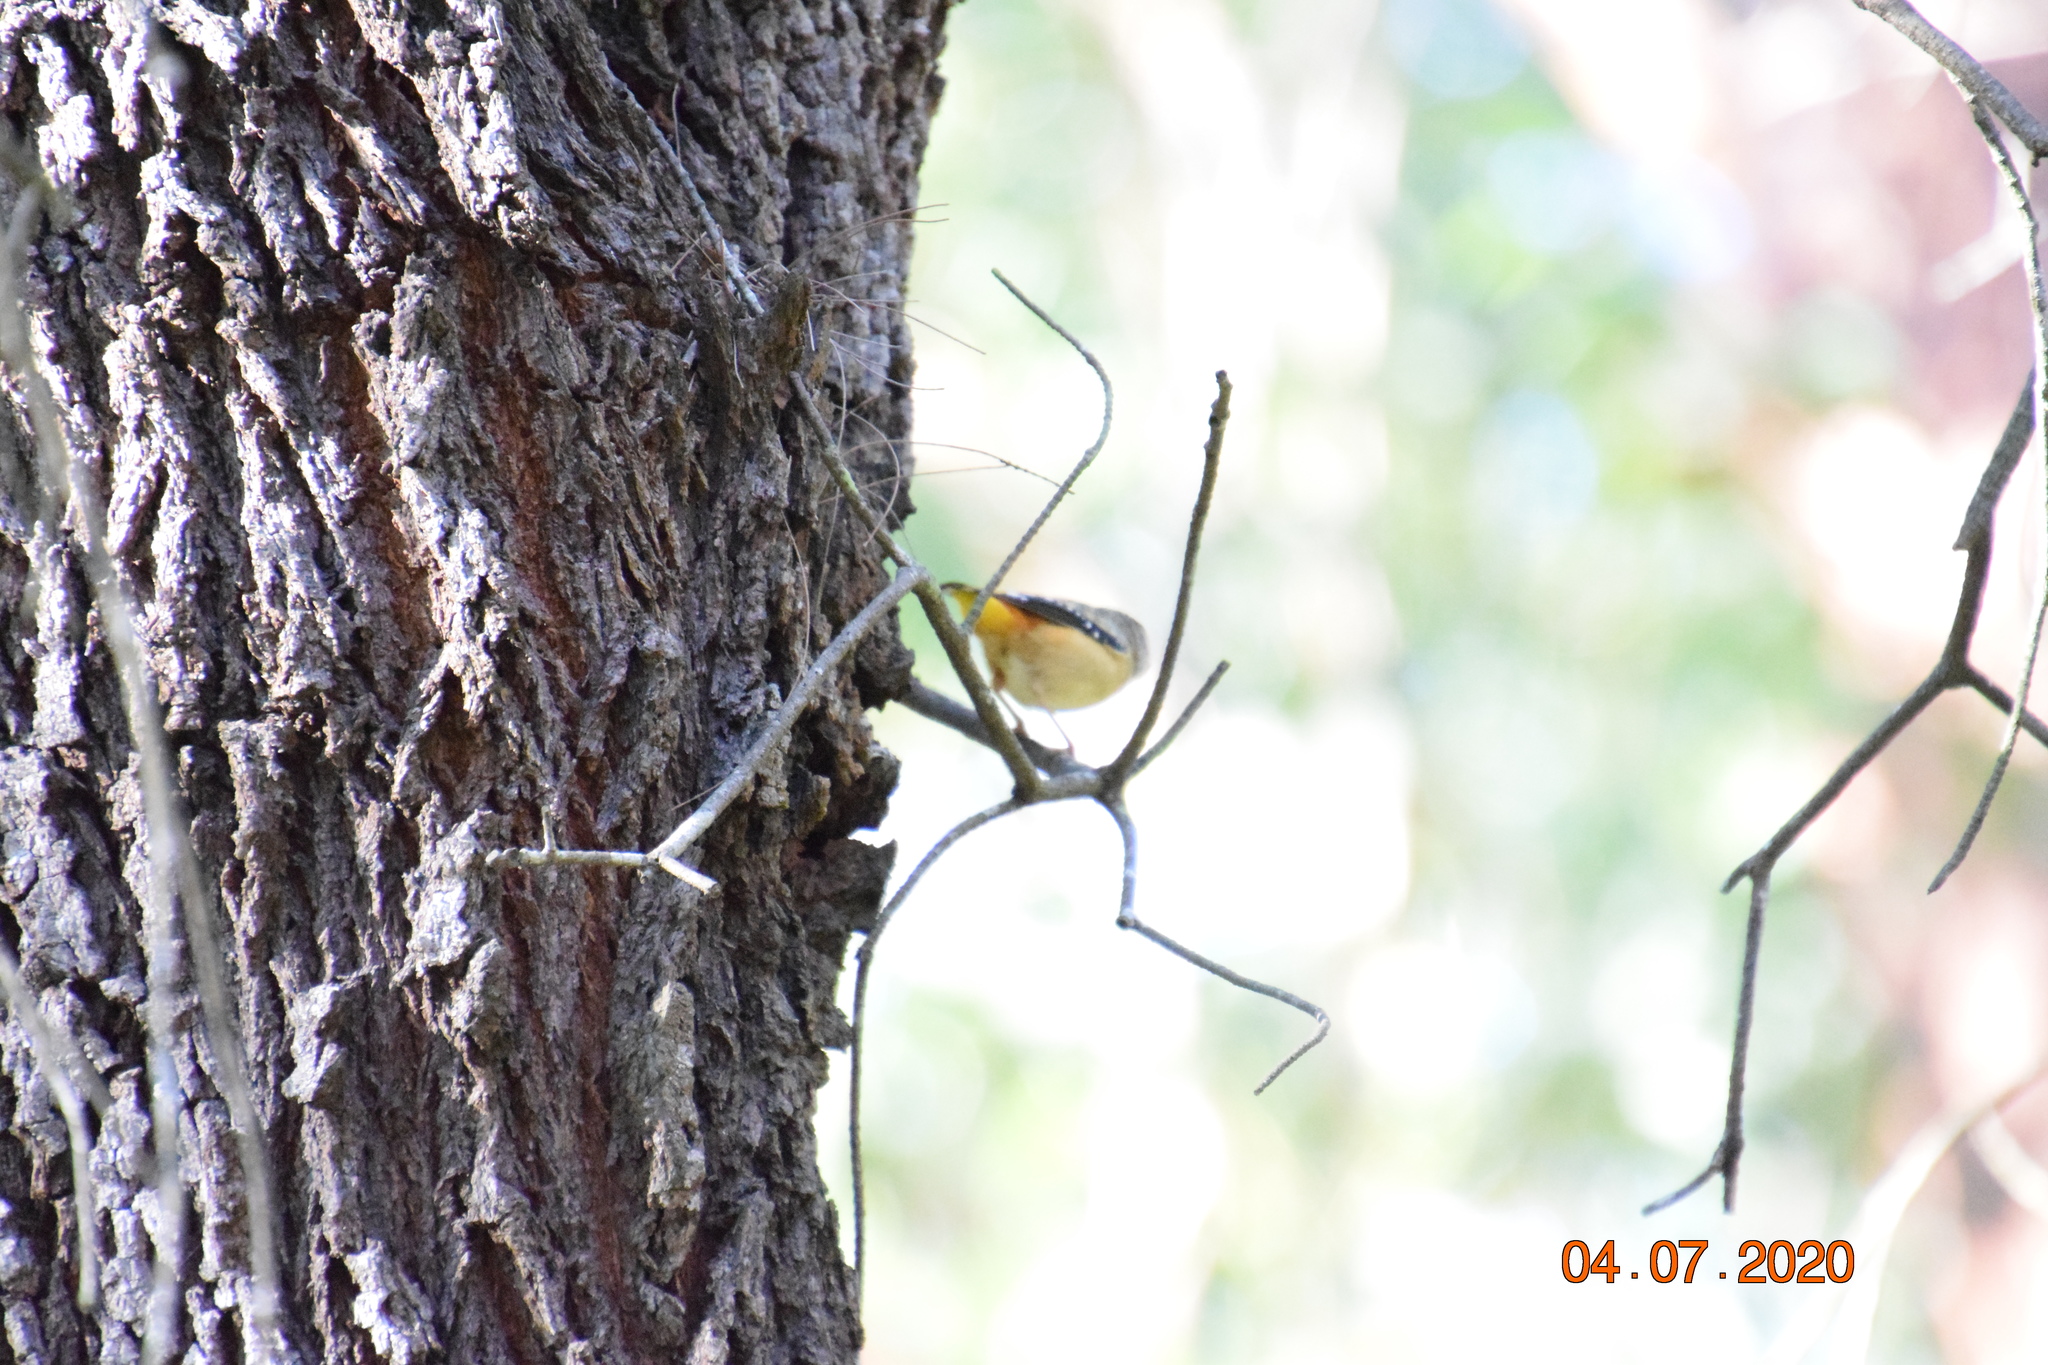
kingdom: Animalia
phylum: Chordata
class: Aves
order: Passeriformes
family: Pardalotidae
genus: Pardalotus
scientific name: Pardalotus punctatus
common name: Spotted pardalote
